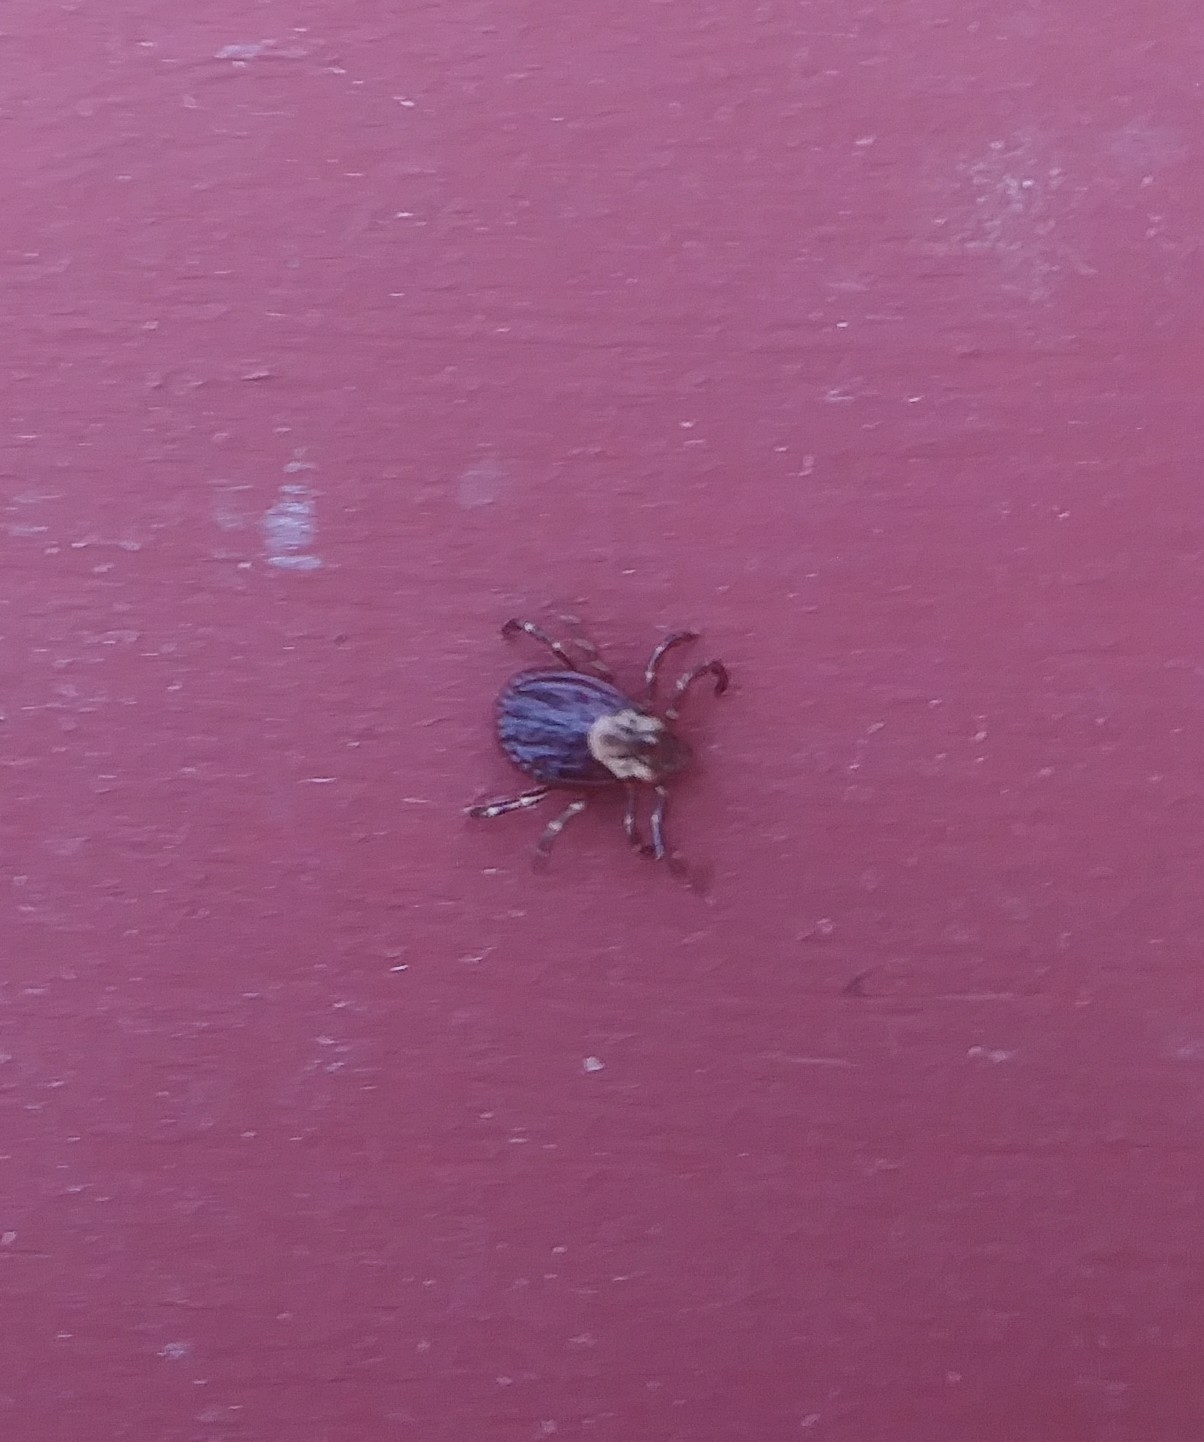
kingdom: Animalia
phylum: Arthropoda
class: Arachnida
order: Ixodida
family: Ixodidae
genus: Dermacentor
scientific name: Dermacentor variabilis
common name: American dog tick
